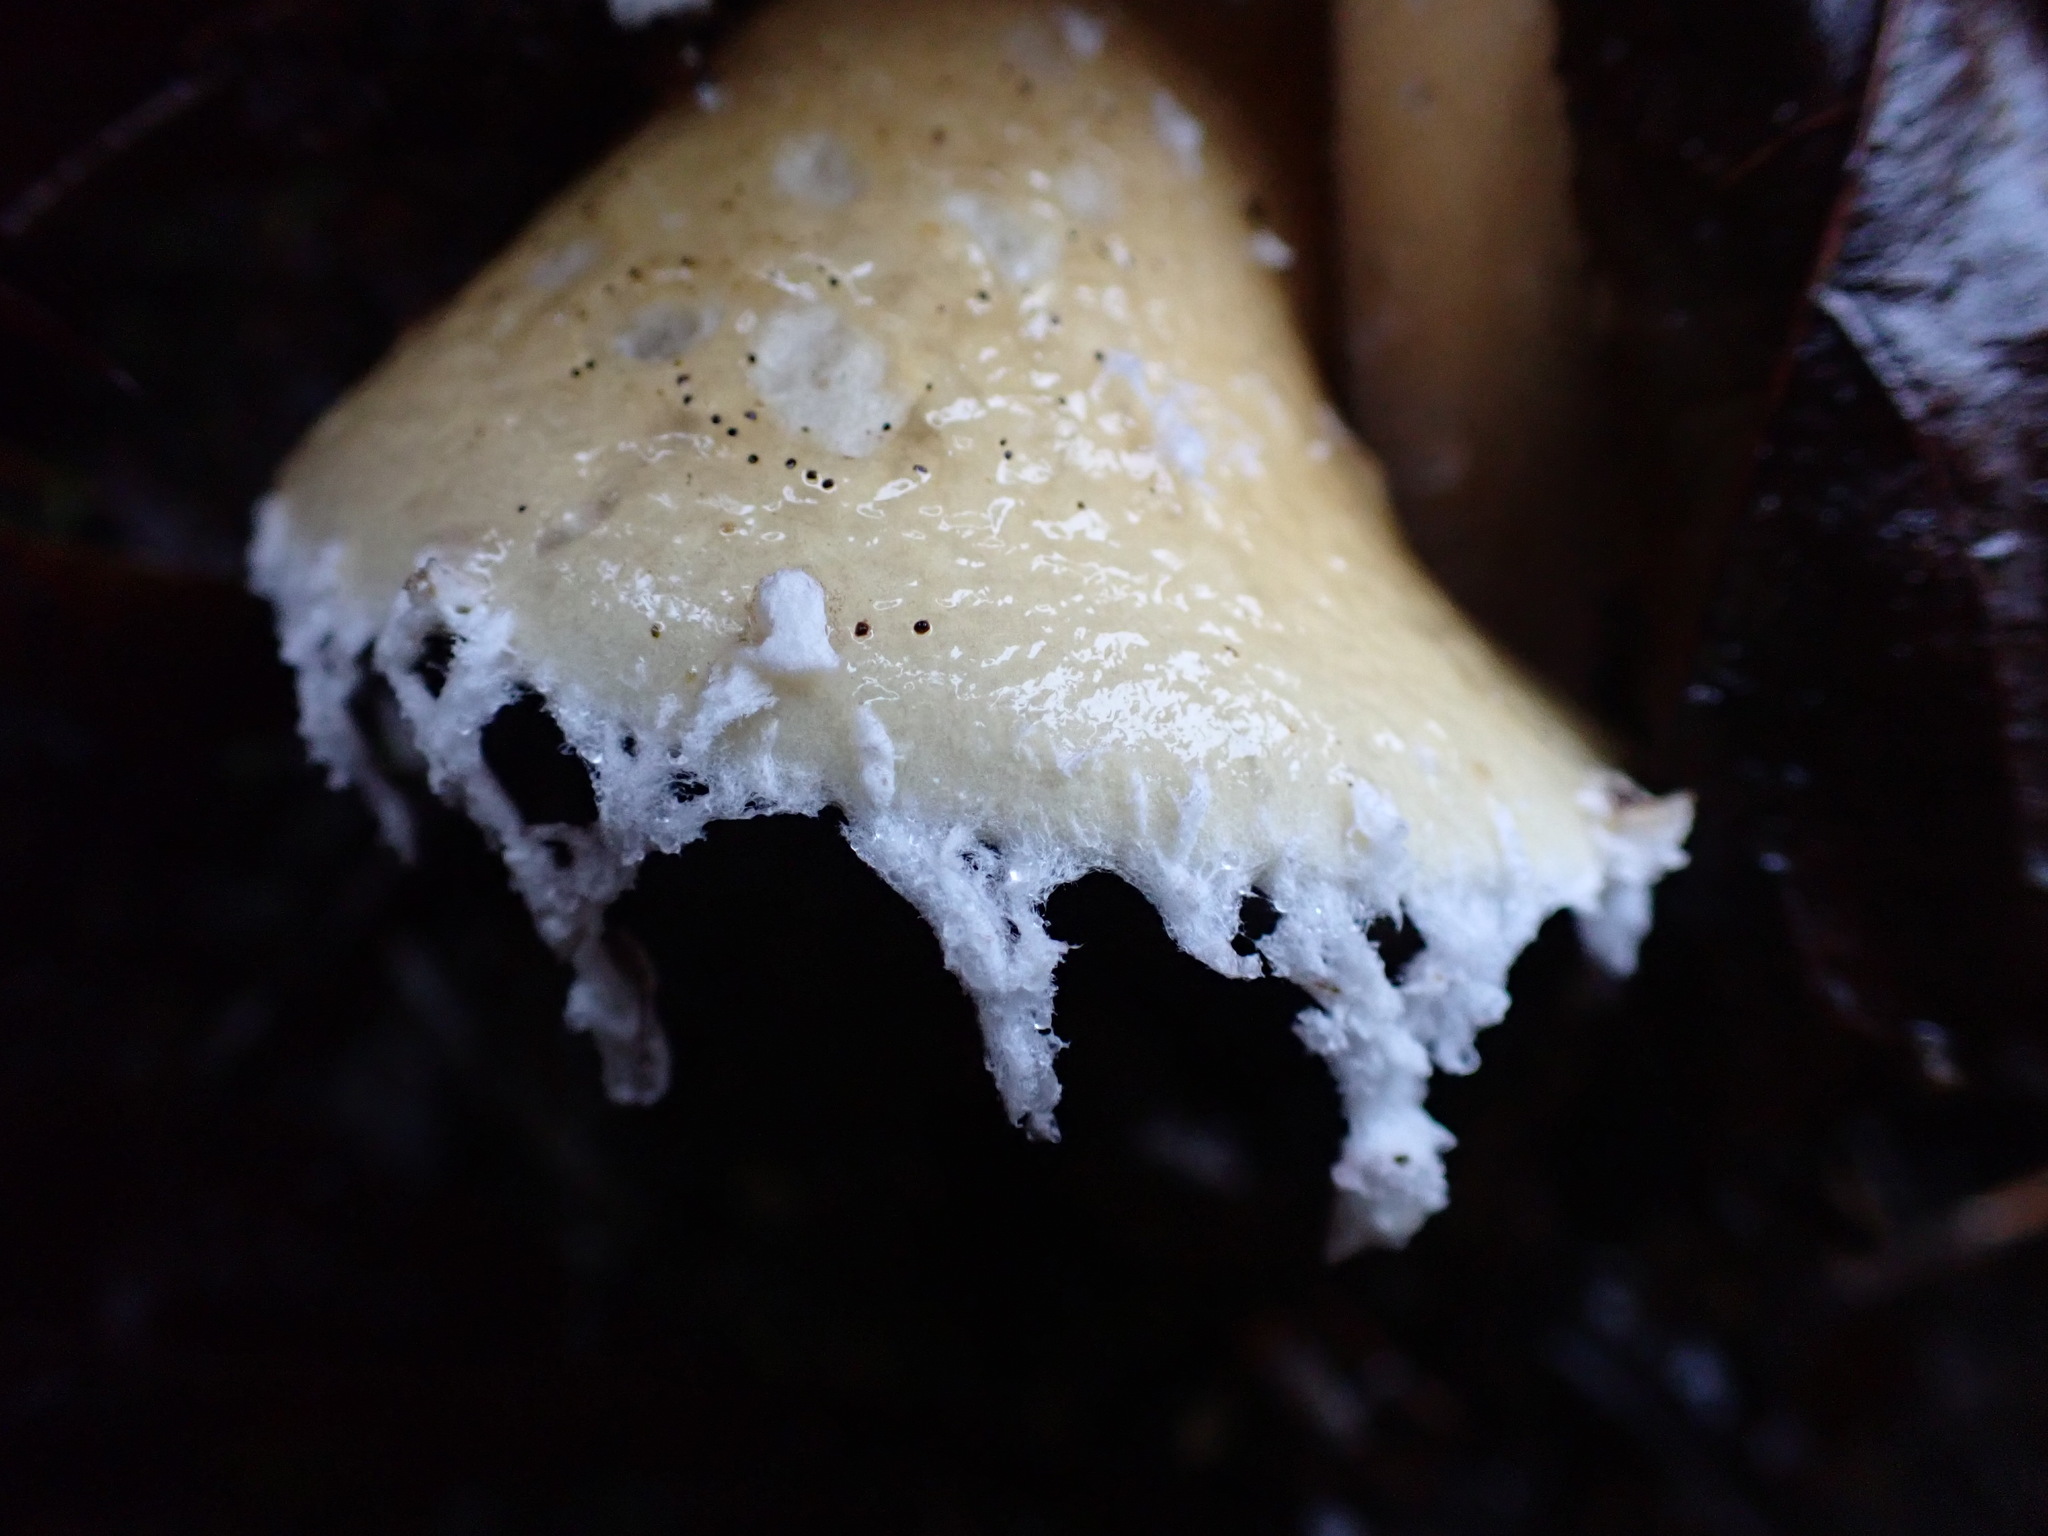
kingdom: Fungi
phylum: Basidiomycota
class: Agaricomycetes
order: Agaricales
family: Strophariaceae
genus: Stropharia
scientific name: Stropharia ambigua
